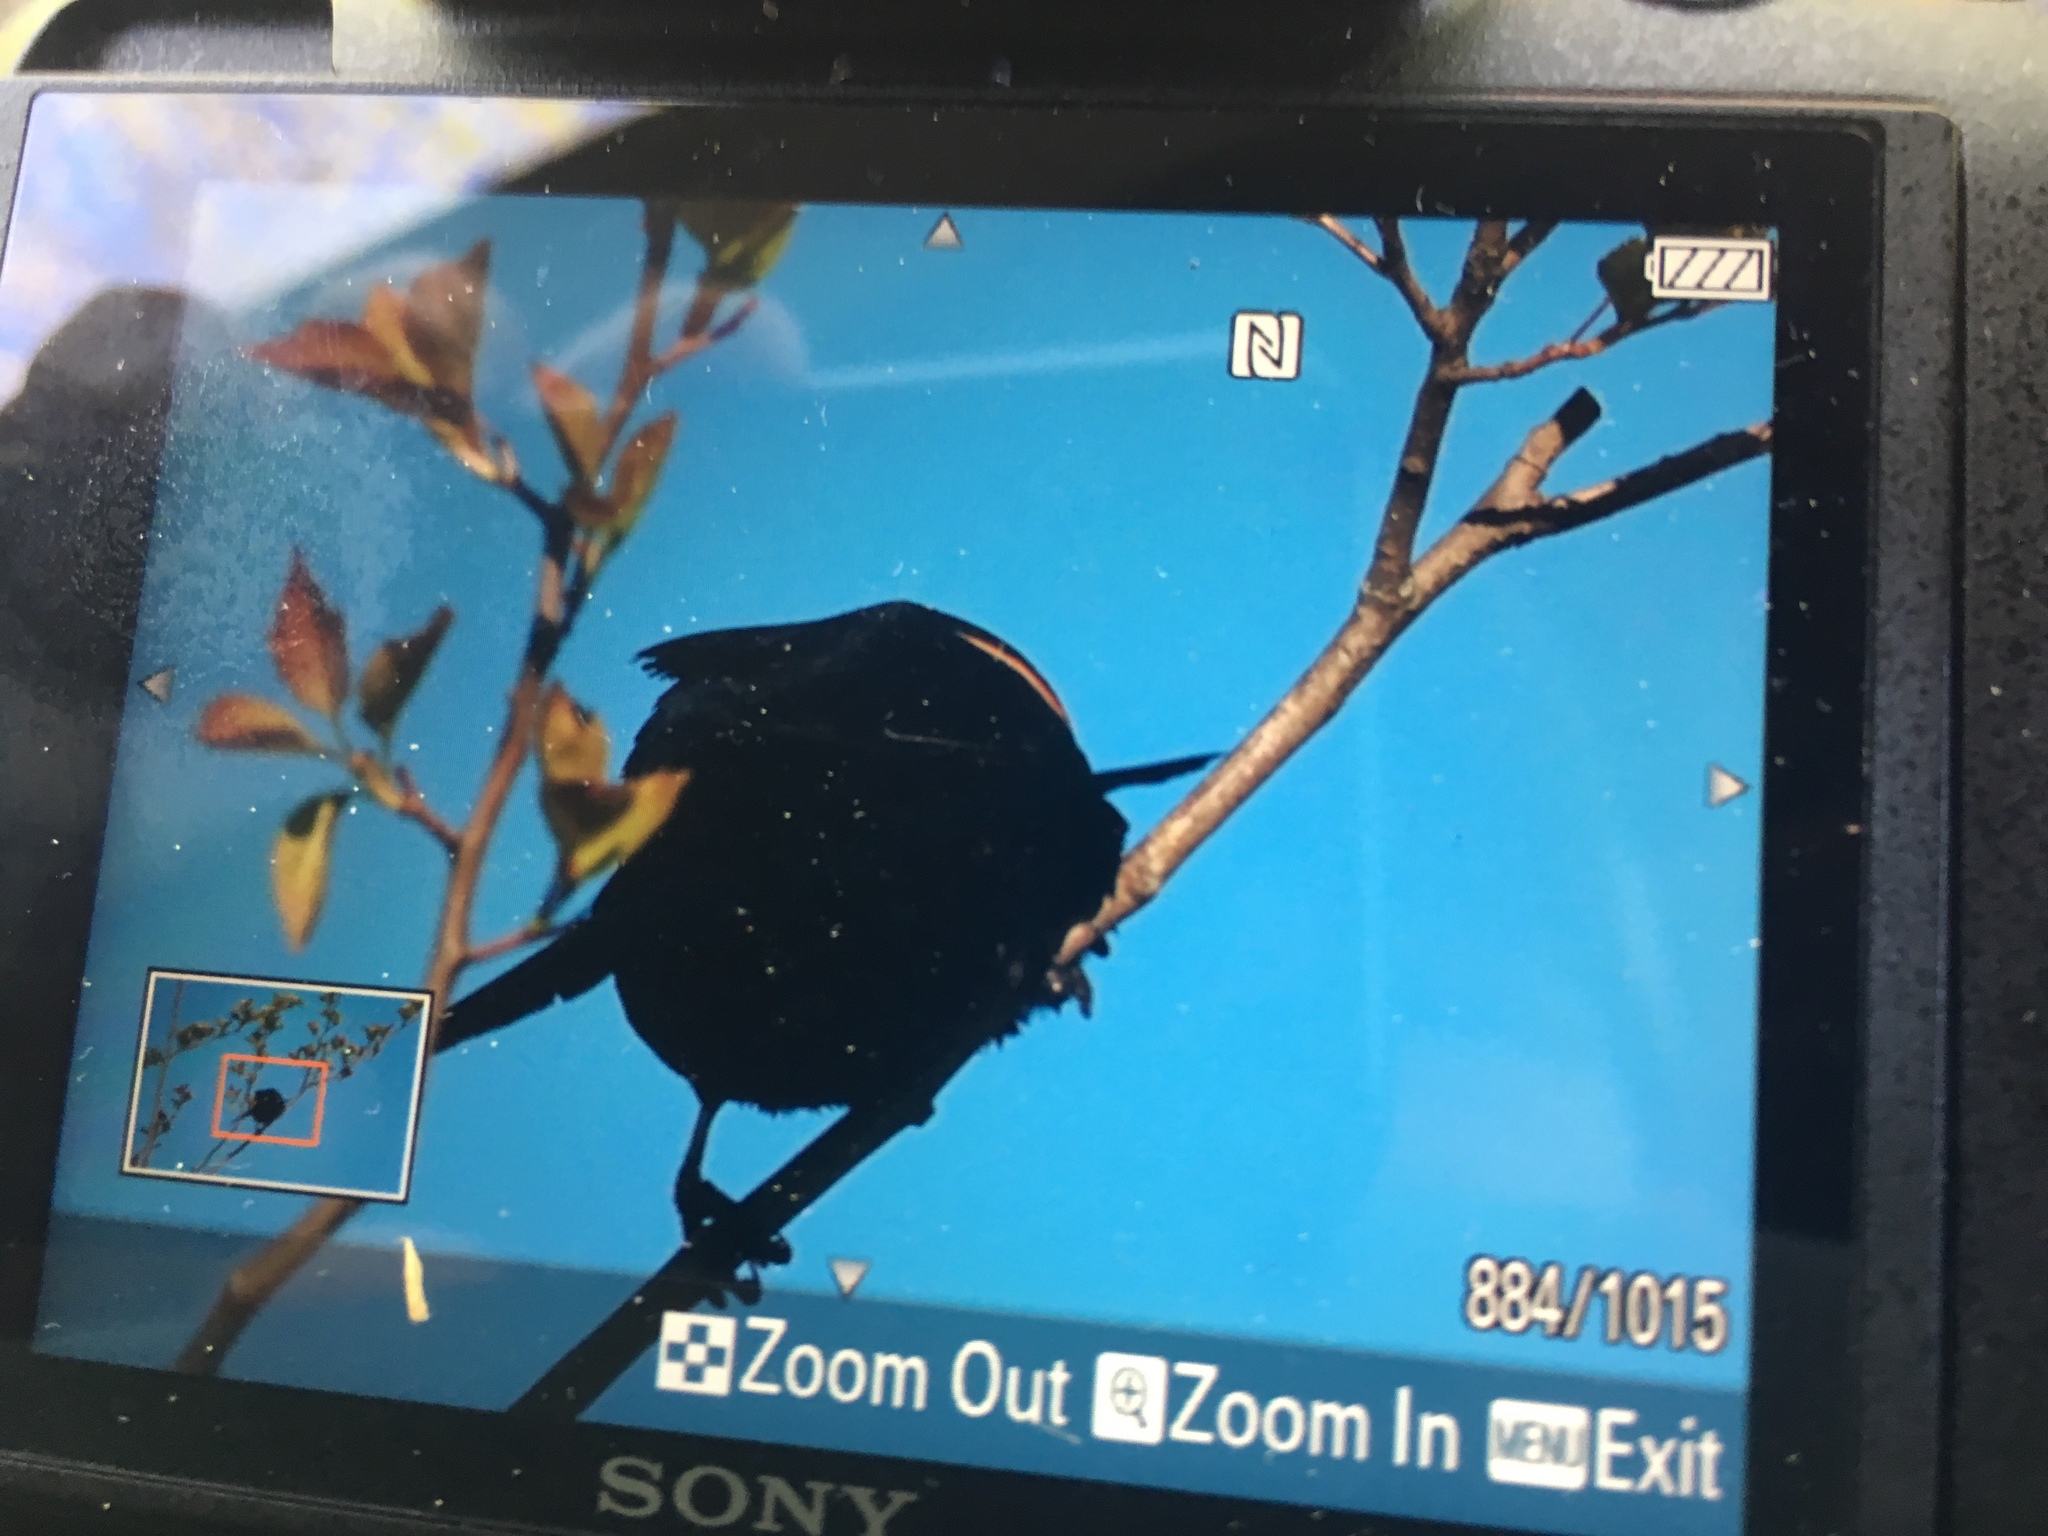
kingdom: Animalia
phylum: Chordata
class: Aves
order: Passeriformes
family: Icteridae
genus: Agelaius
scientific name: Agelaius phoeniceus
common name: Red-winged blackbird
